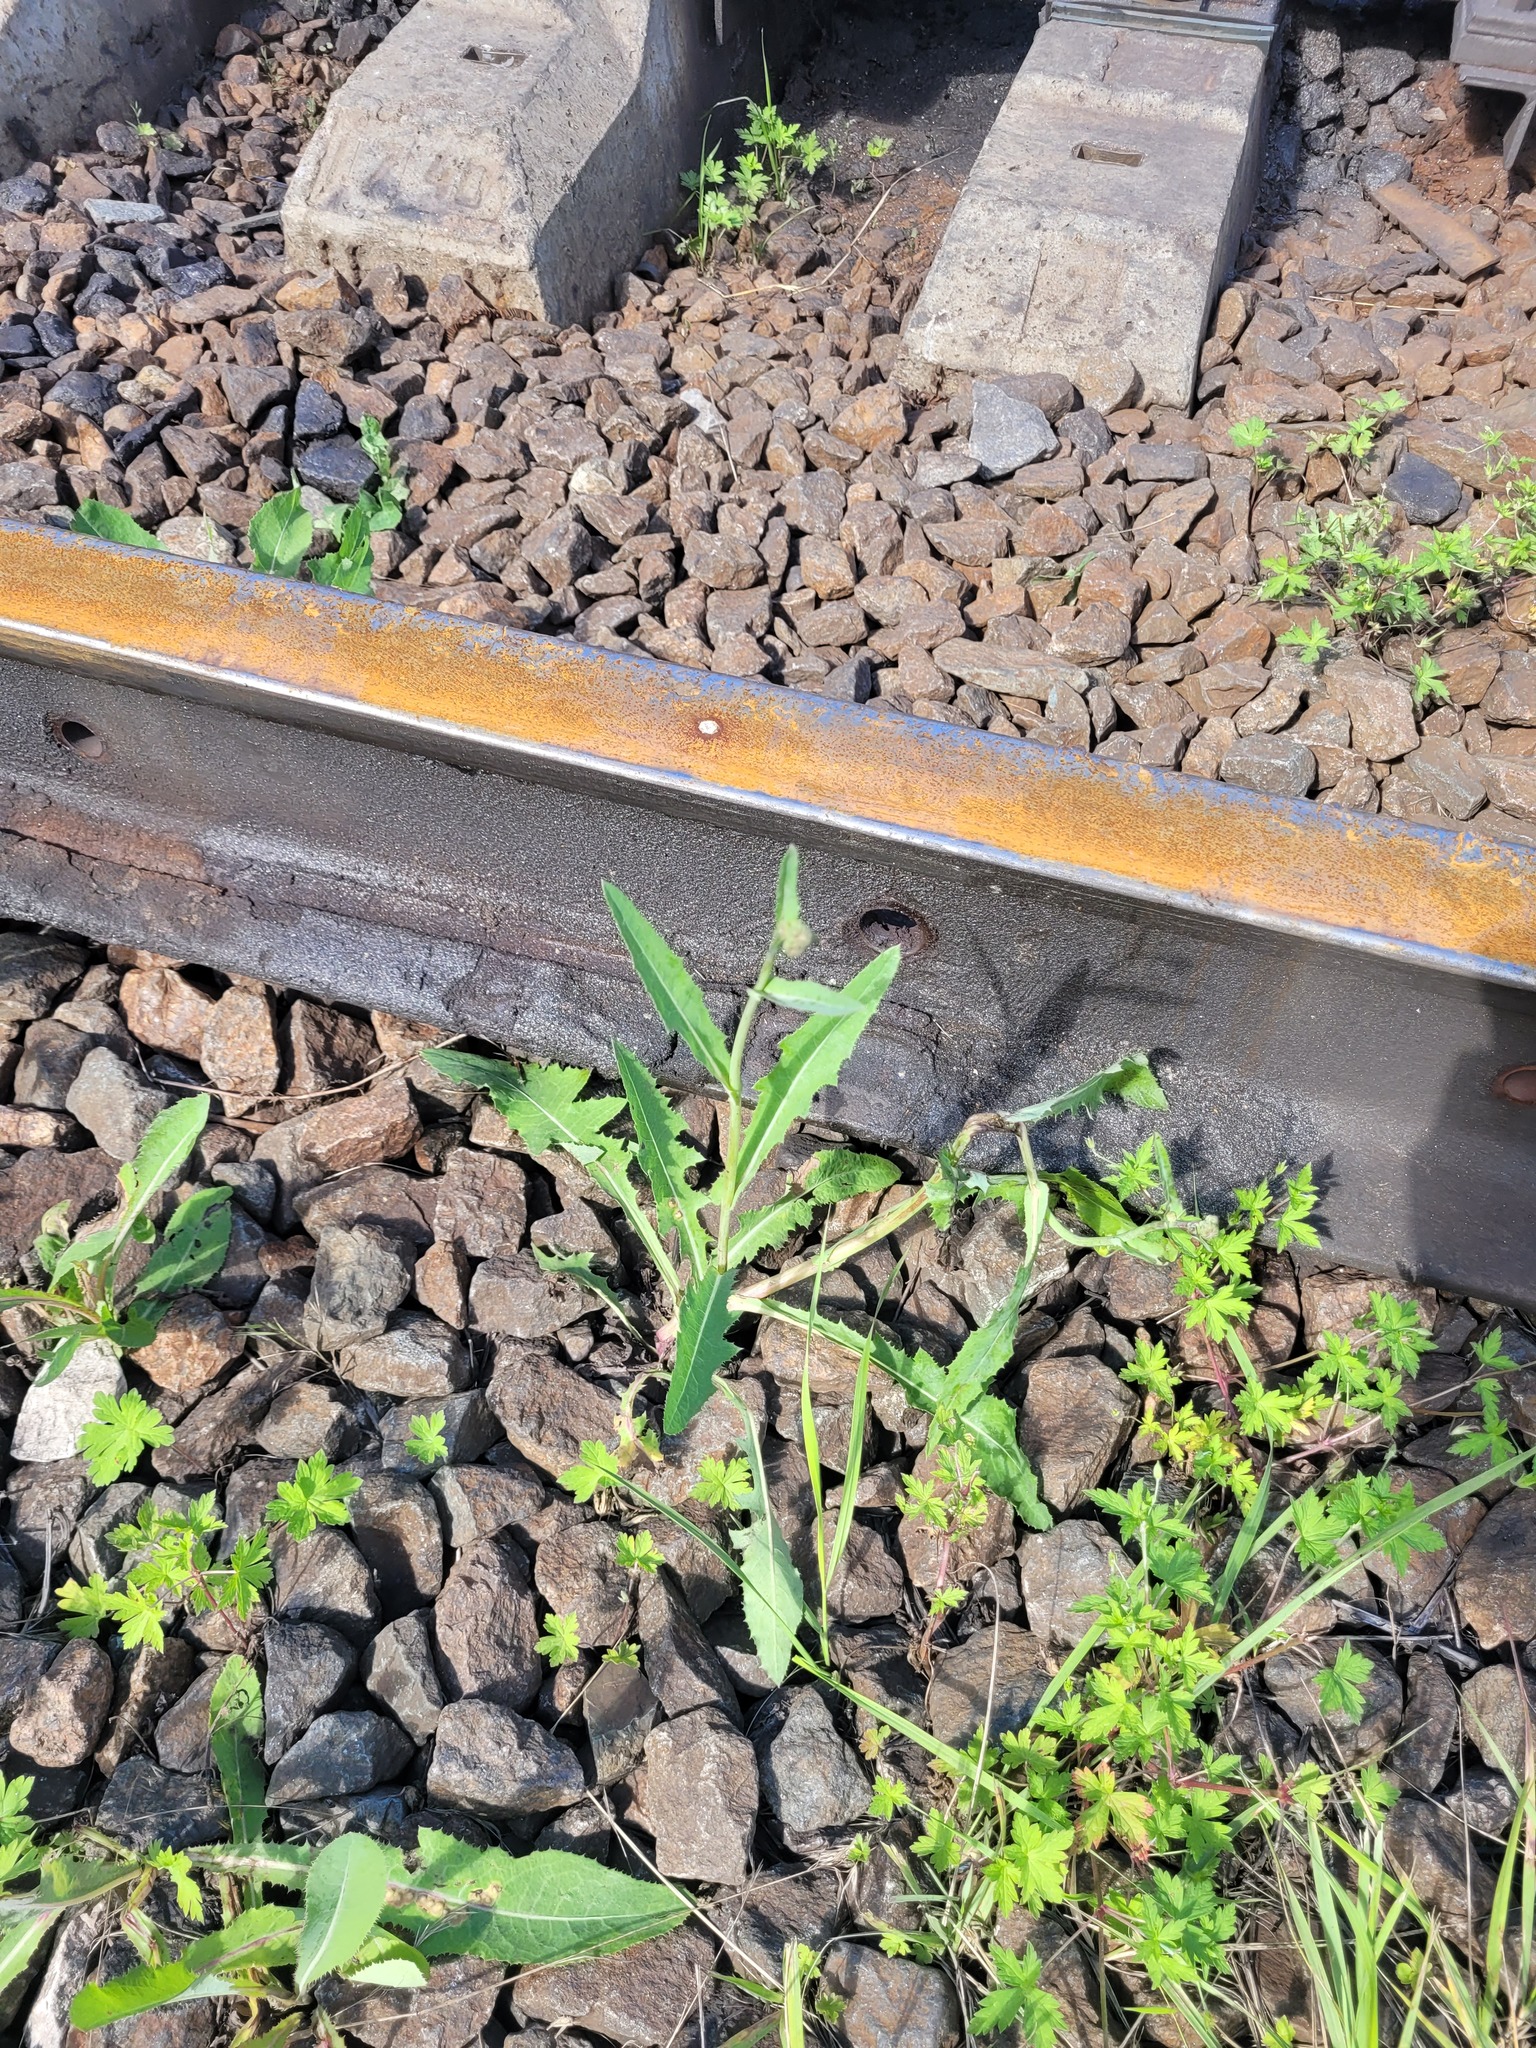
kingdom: Plantae
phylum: Tracheophyta
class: Magnoliopsida
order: Asterales
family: Asteraceae
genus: Sonchus
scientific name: Sonchus arvensis
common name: Perennial sow-thistle
